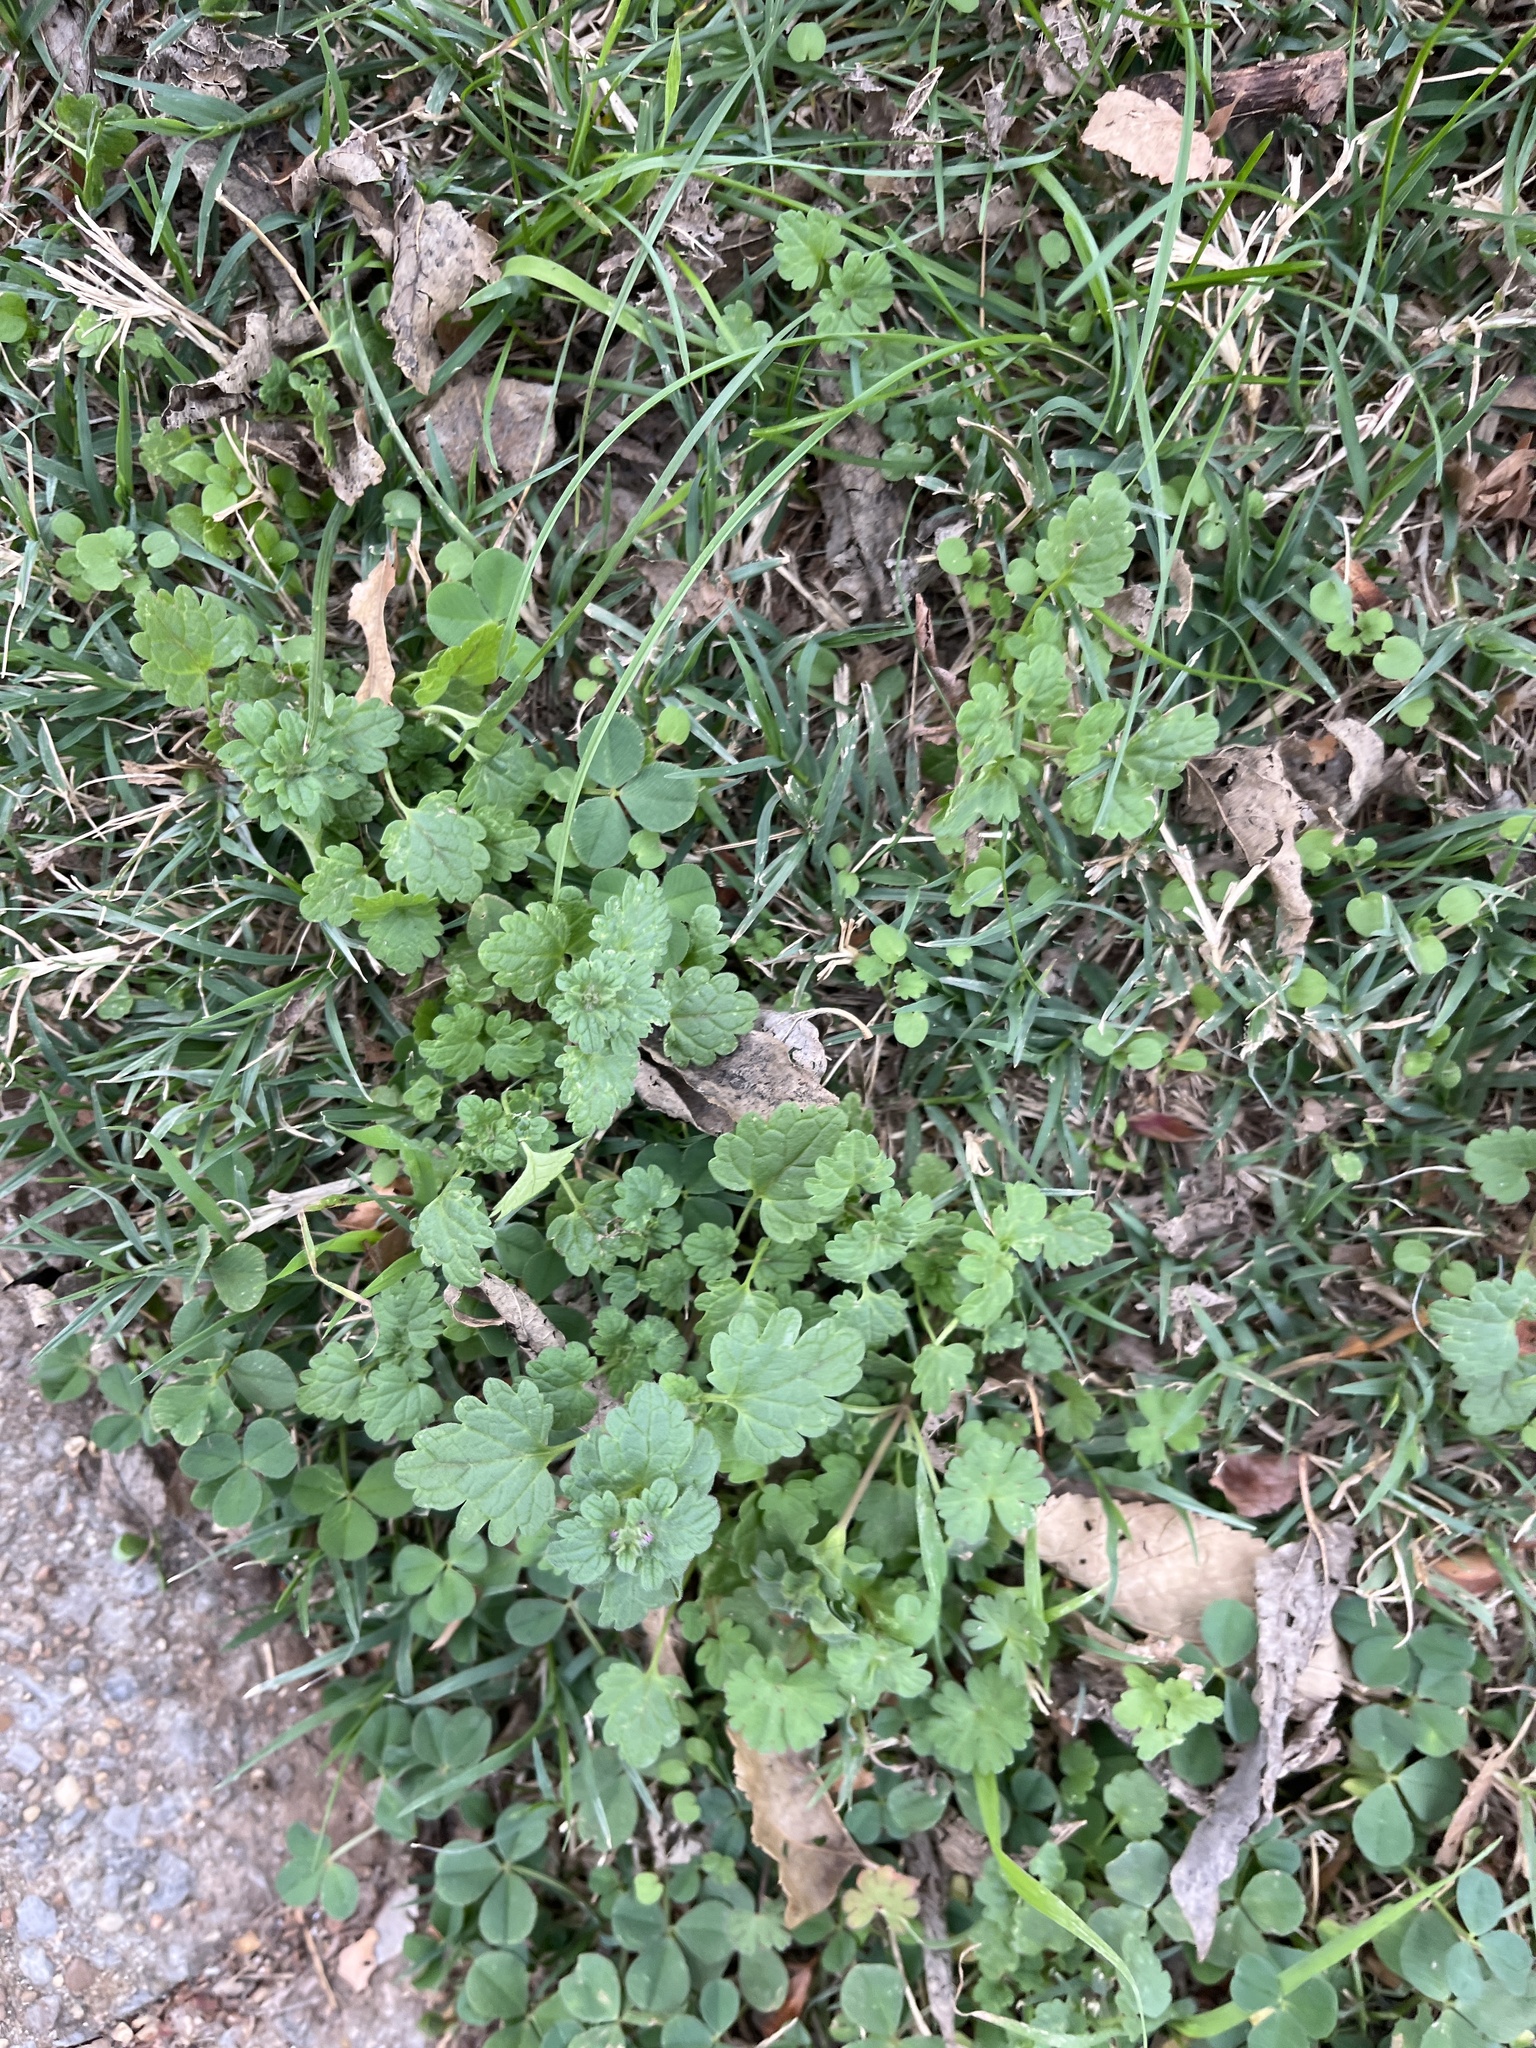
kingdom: Plantae
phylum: Tracheophyta
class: Magnoliopsida
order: Lamiales
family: Lamiaceae
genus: Lamium
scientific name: Lamium amplexicaule
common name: Henbit dead-nettle
